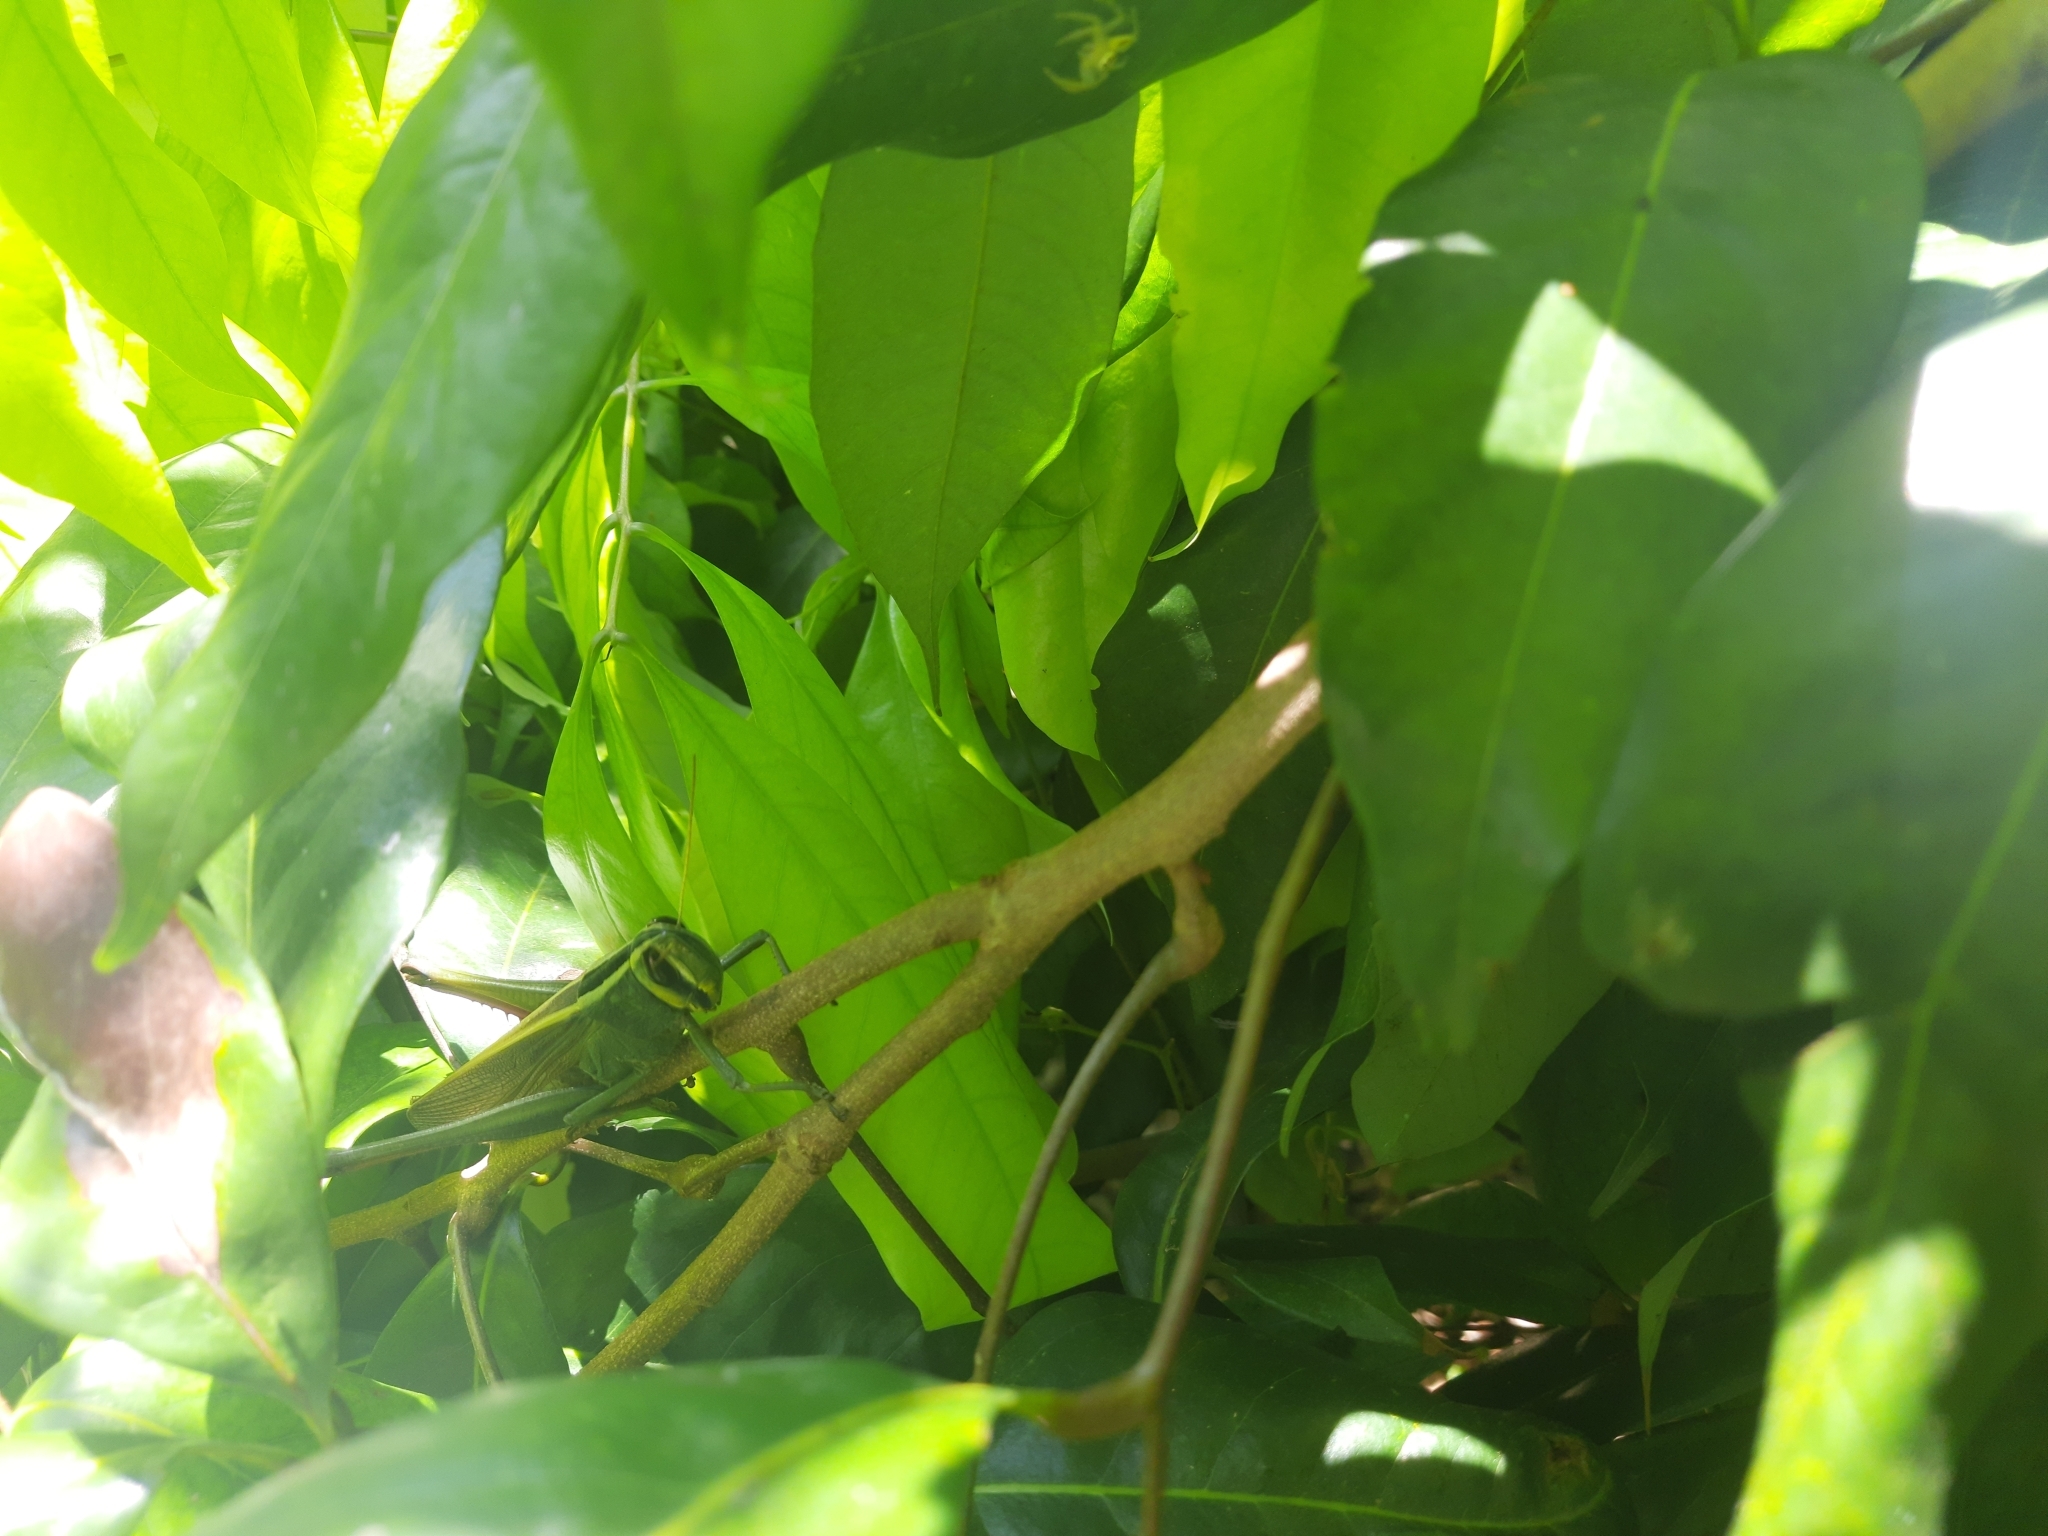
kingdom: Animalia
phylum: Arthropoda
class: Insecta
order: Orthoptera
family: Acrididae
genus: Choroedocus
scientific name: Choroedocus robustus
